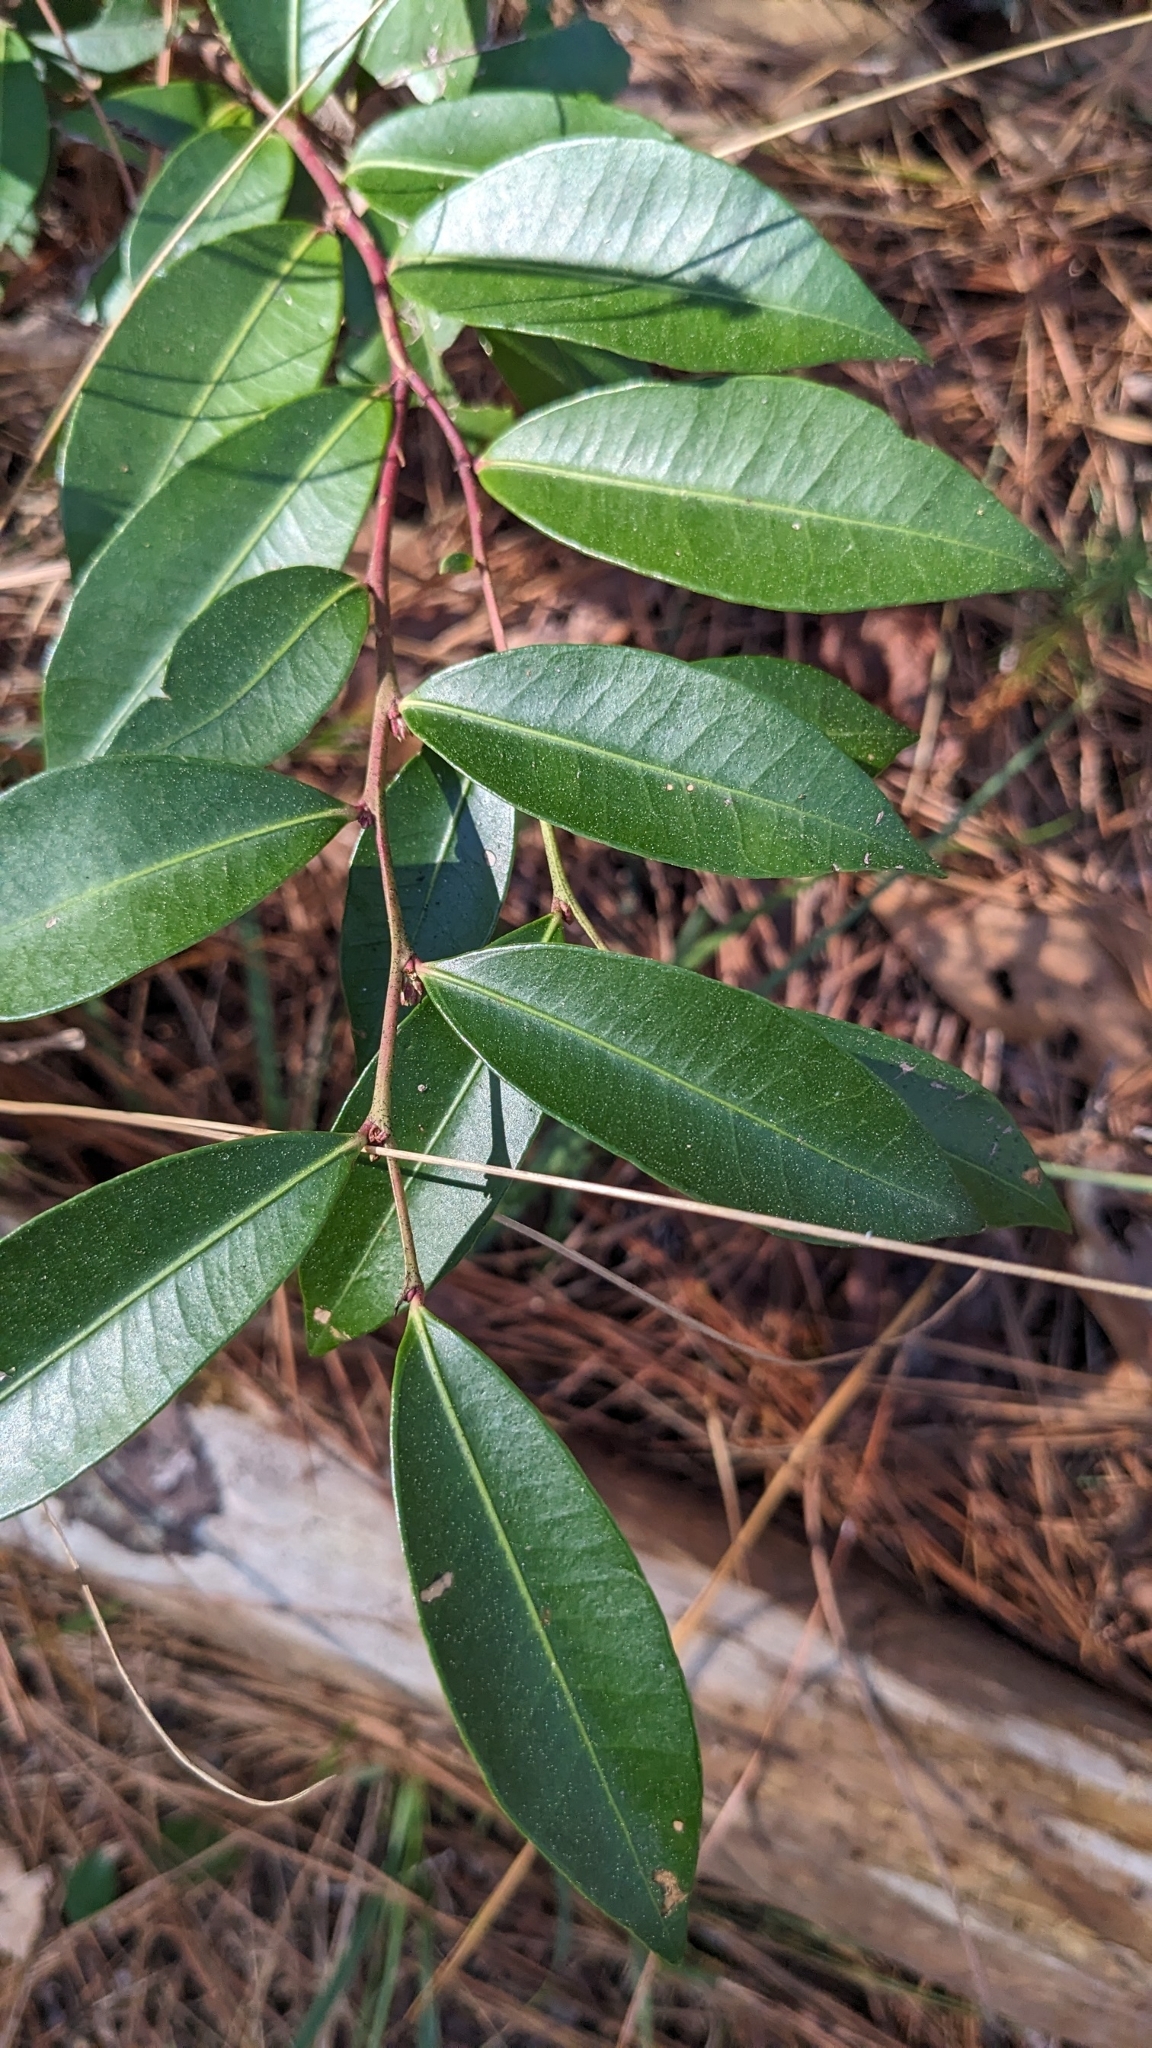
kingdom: Plantae
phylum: Tracheophyta
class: Magnoliopsida
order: Ericales
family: Ericaceae
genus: Lyonia
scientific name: Lyonia lucida
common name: Fetterbush
